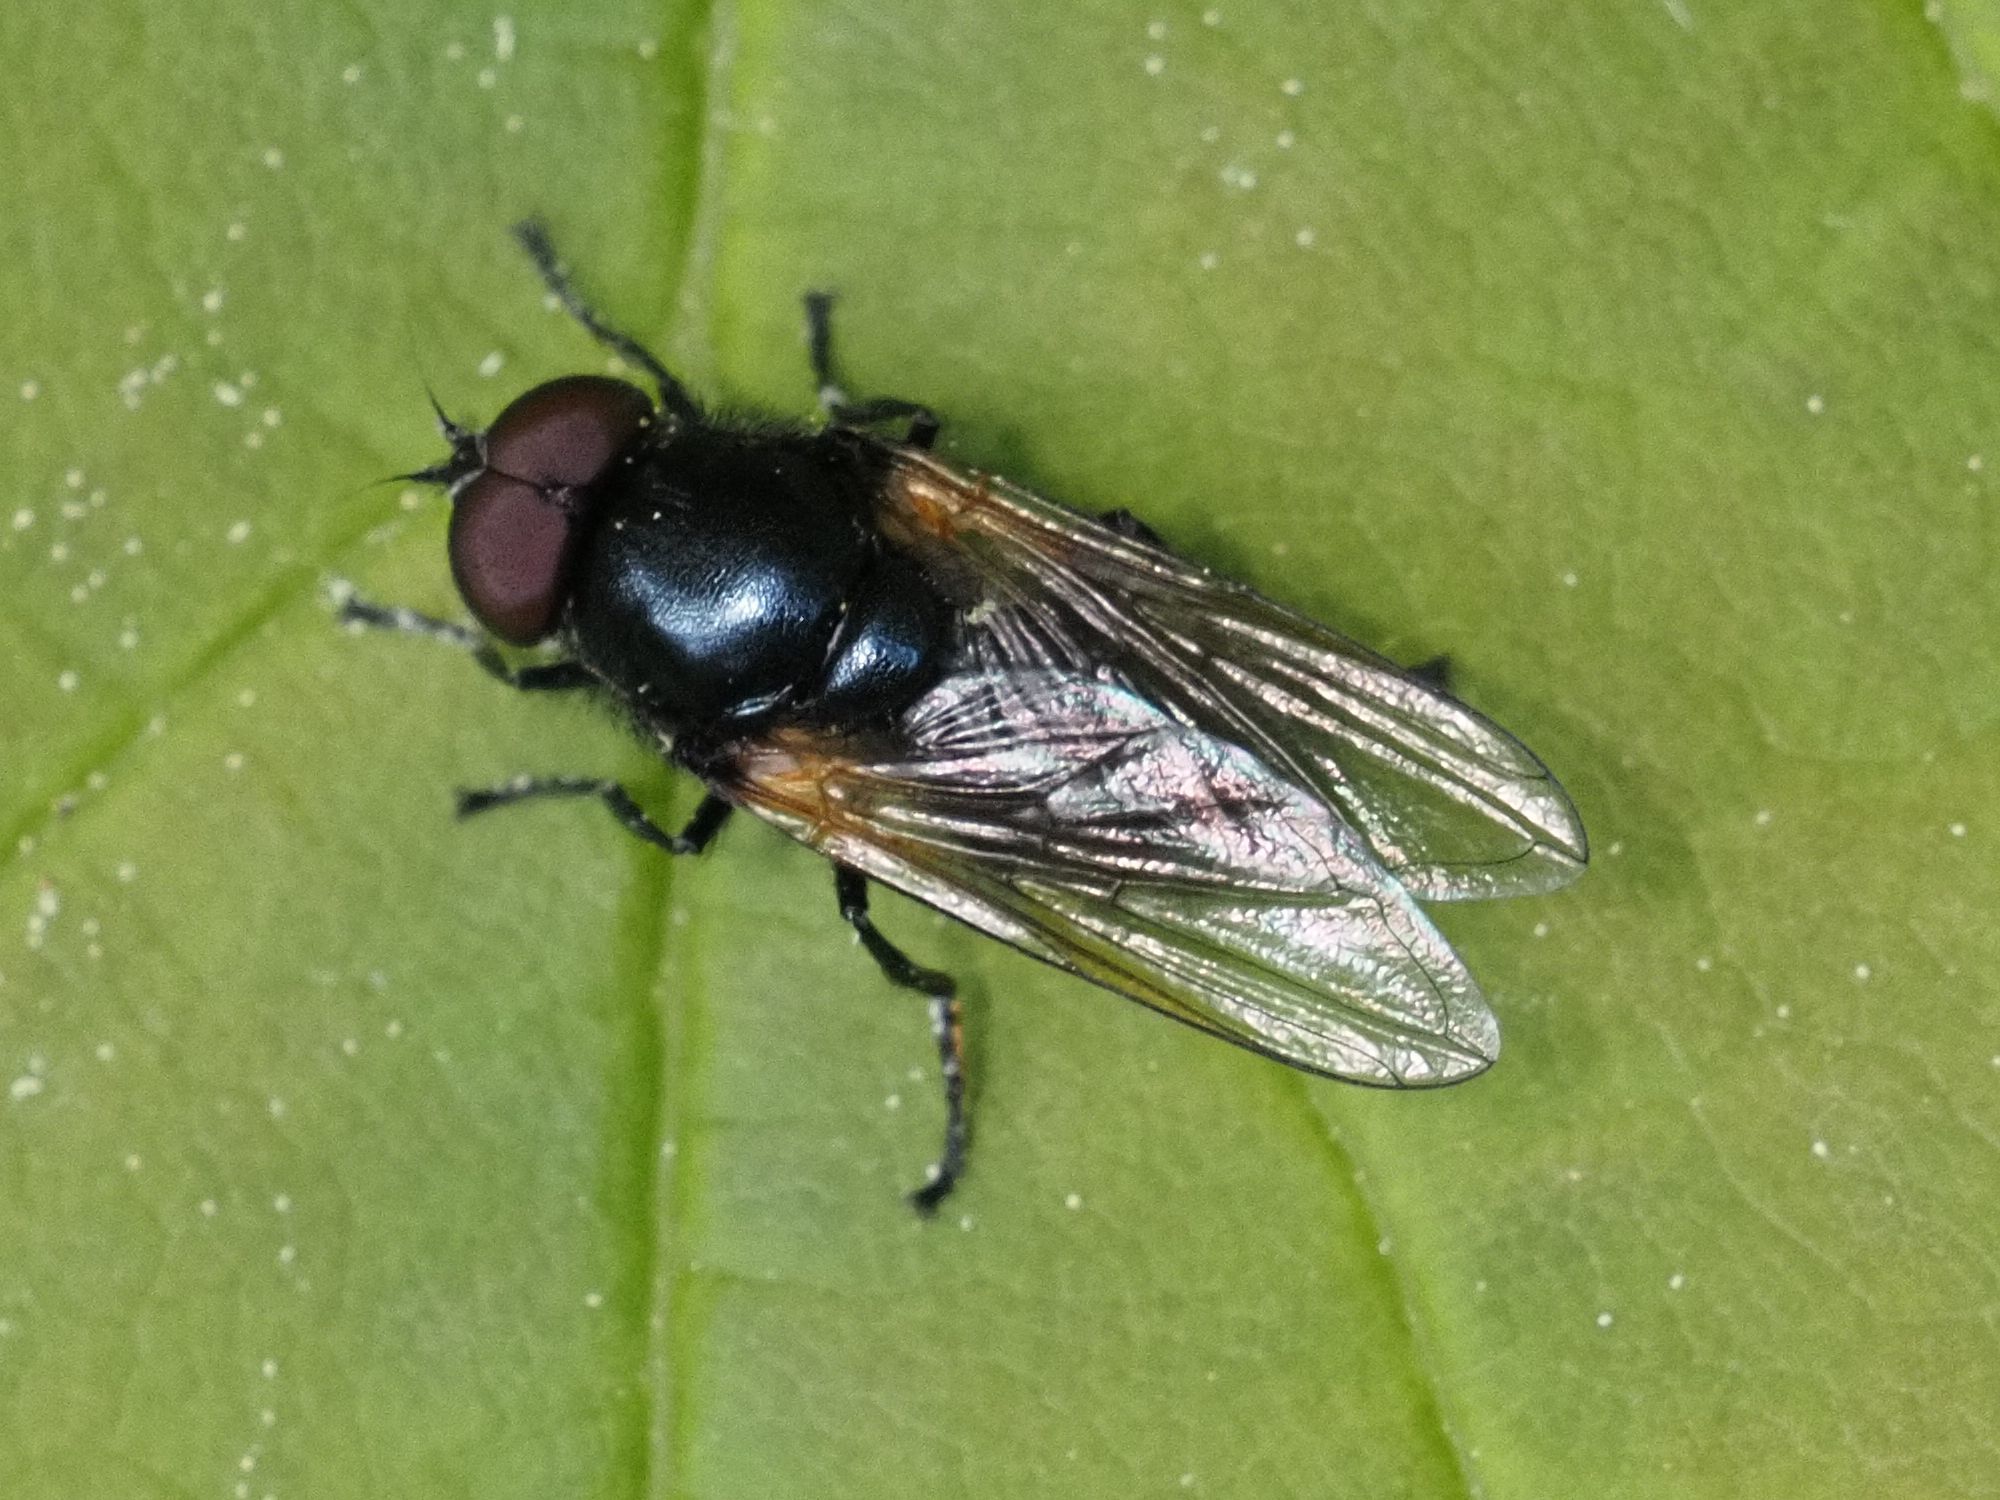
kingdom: Animalia
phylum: Arthropoda
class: Insecta
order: Diptera
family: Syrphidae
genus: Cheilosia
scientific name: Cheilosia impressa
